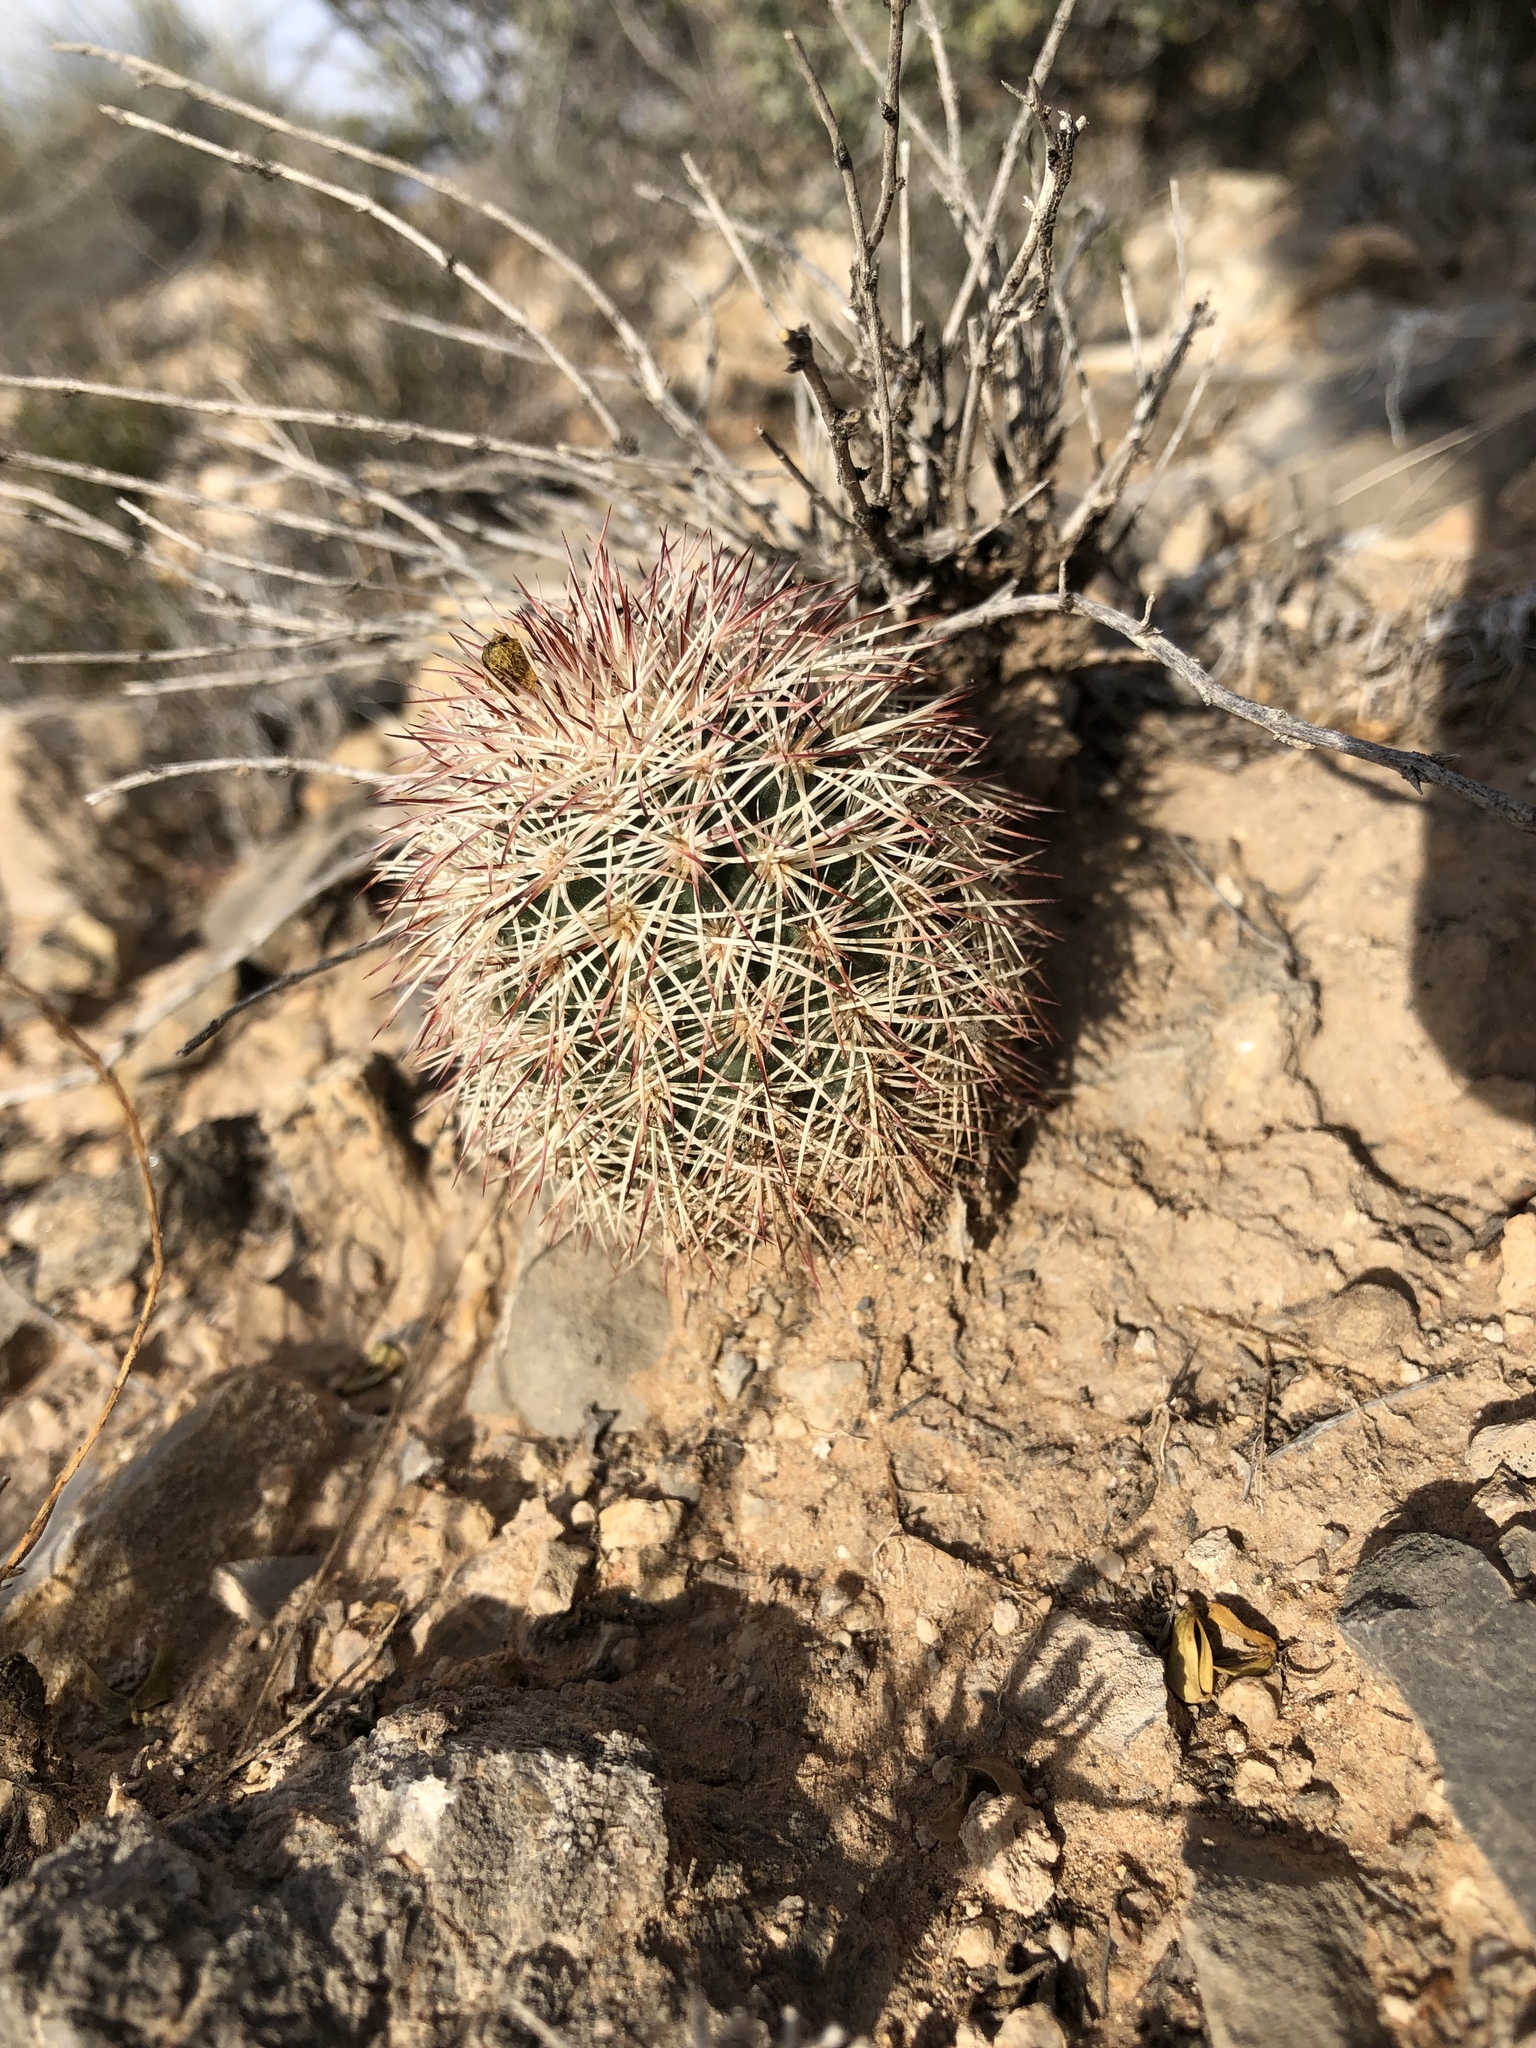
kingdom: Plantae
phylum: Tracheophyta
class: Magnoliopsida
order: Caryophyllales
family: Cactaceae
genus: Echinocereus
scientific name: Echinocereus dasyacanthus
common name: Spiny hedgehog cactus
